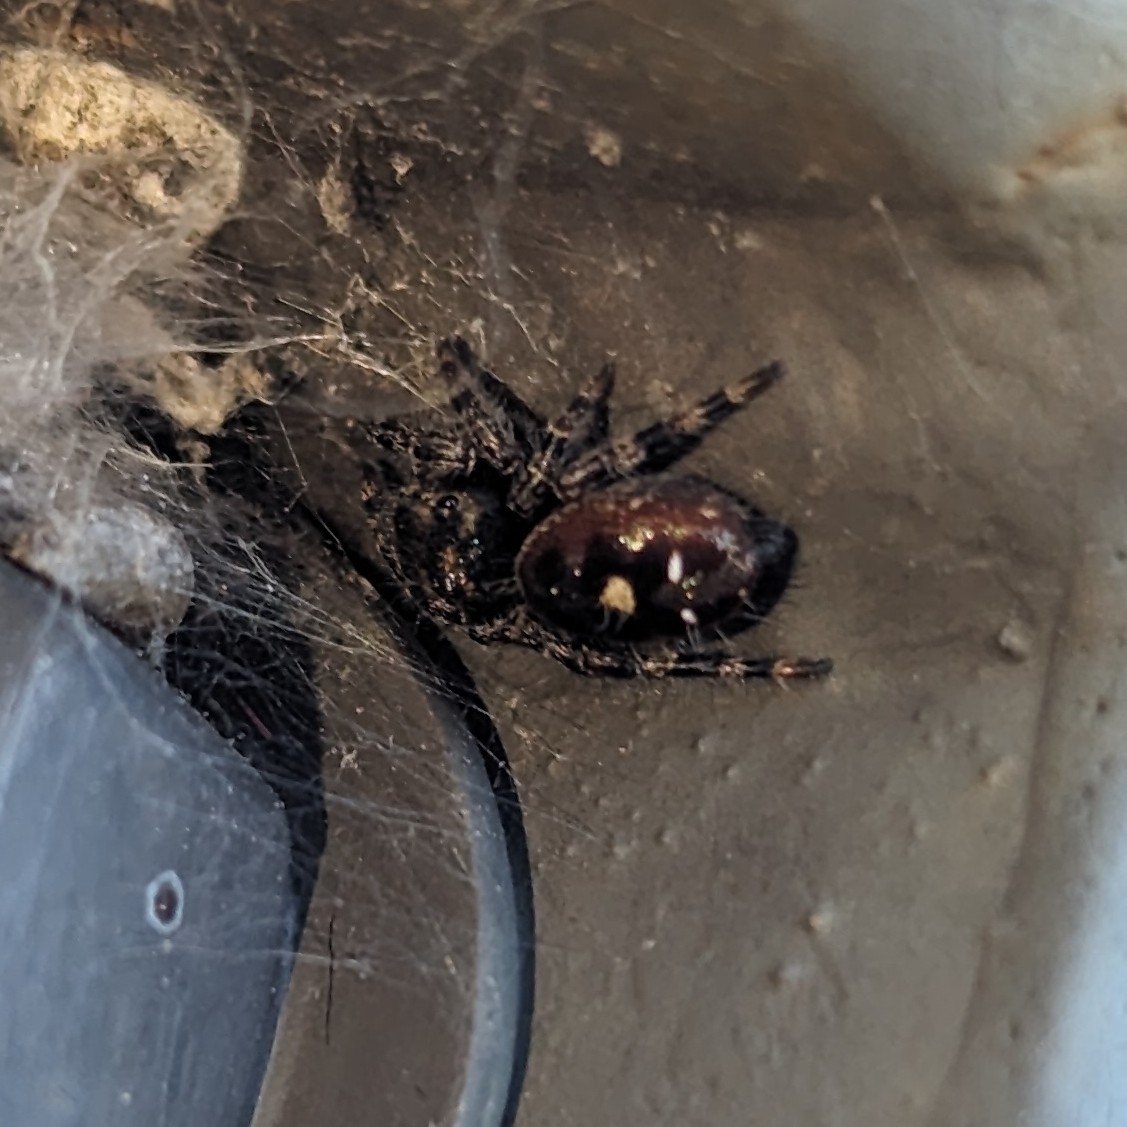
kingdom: Animalia
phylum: Arthropoda
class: Arachnida
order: Araneae
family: Salticidae
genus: Phidippus
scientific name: Phidippus audax
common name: Bold jumper
